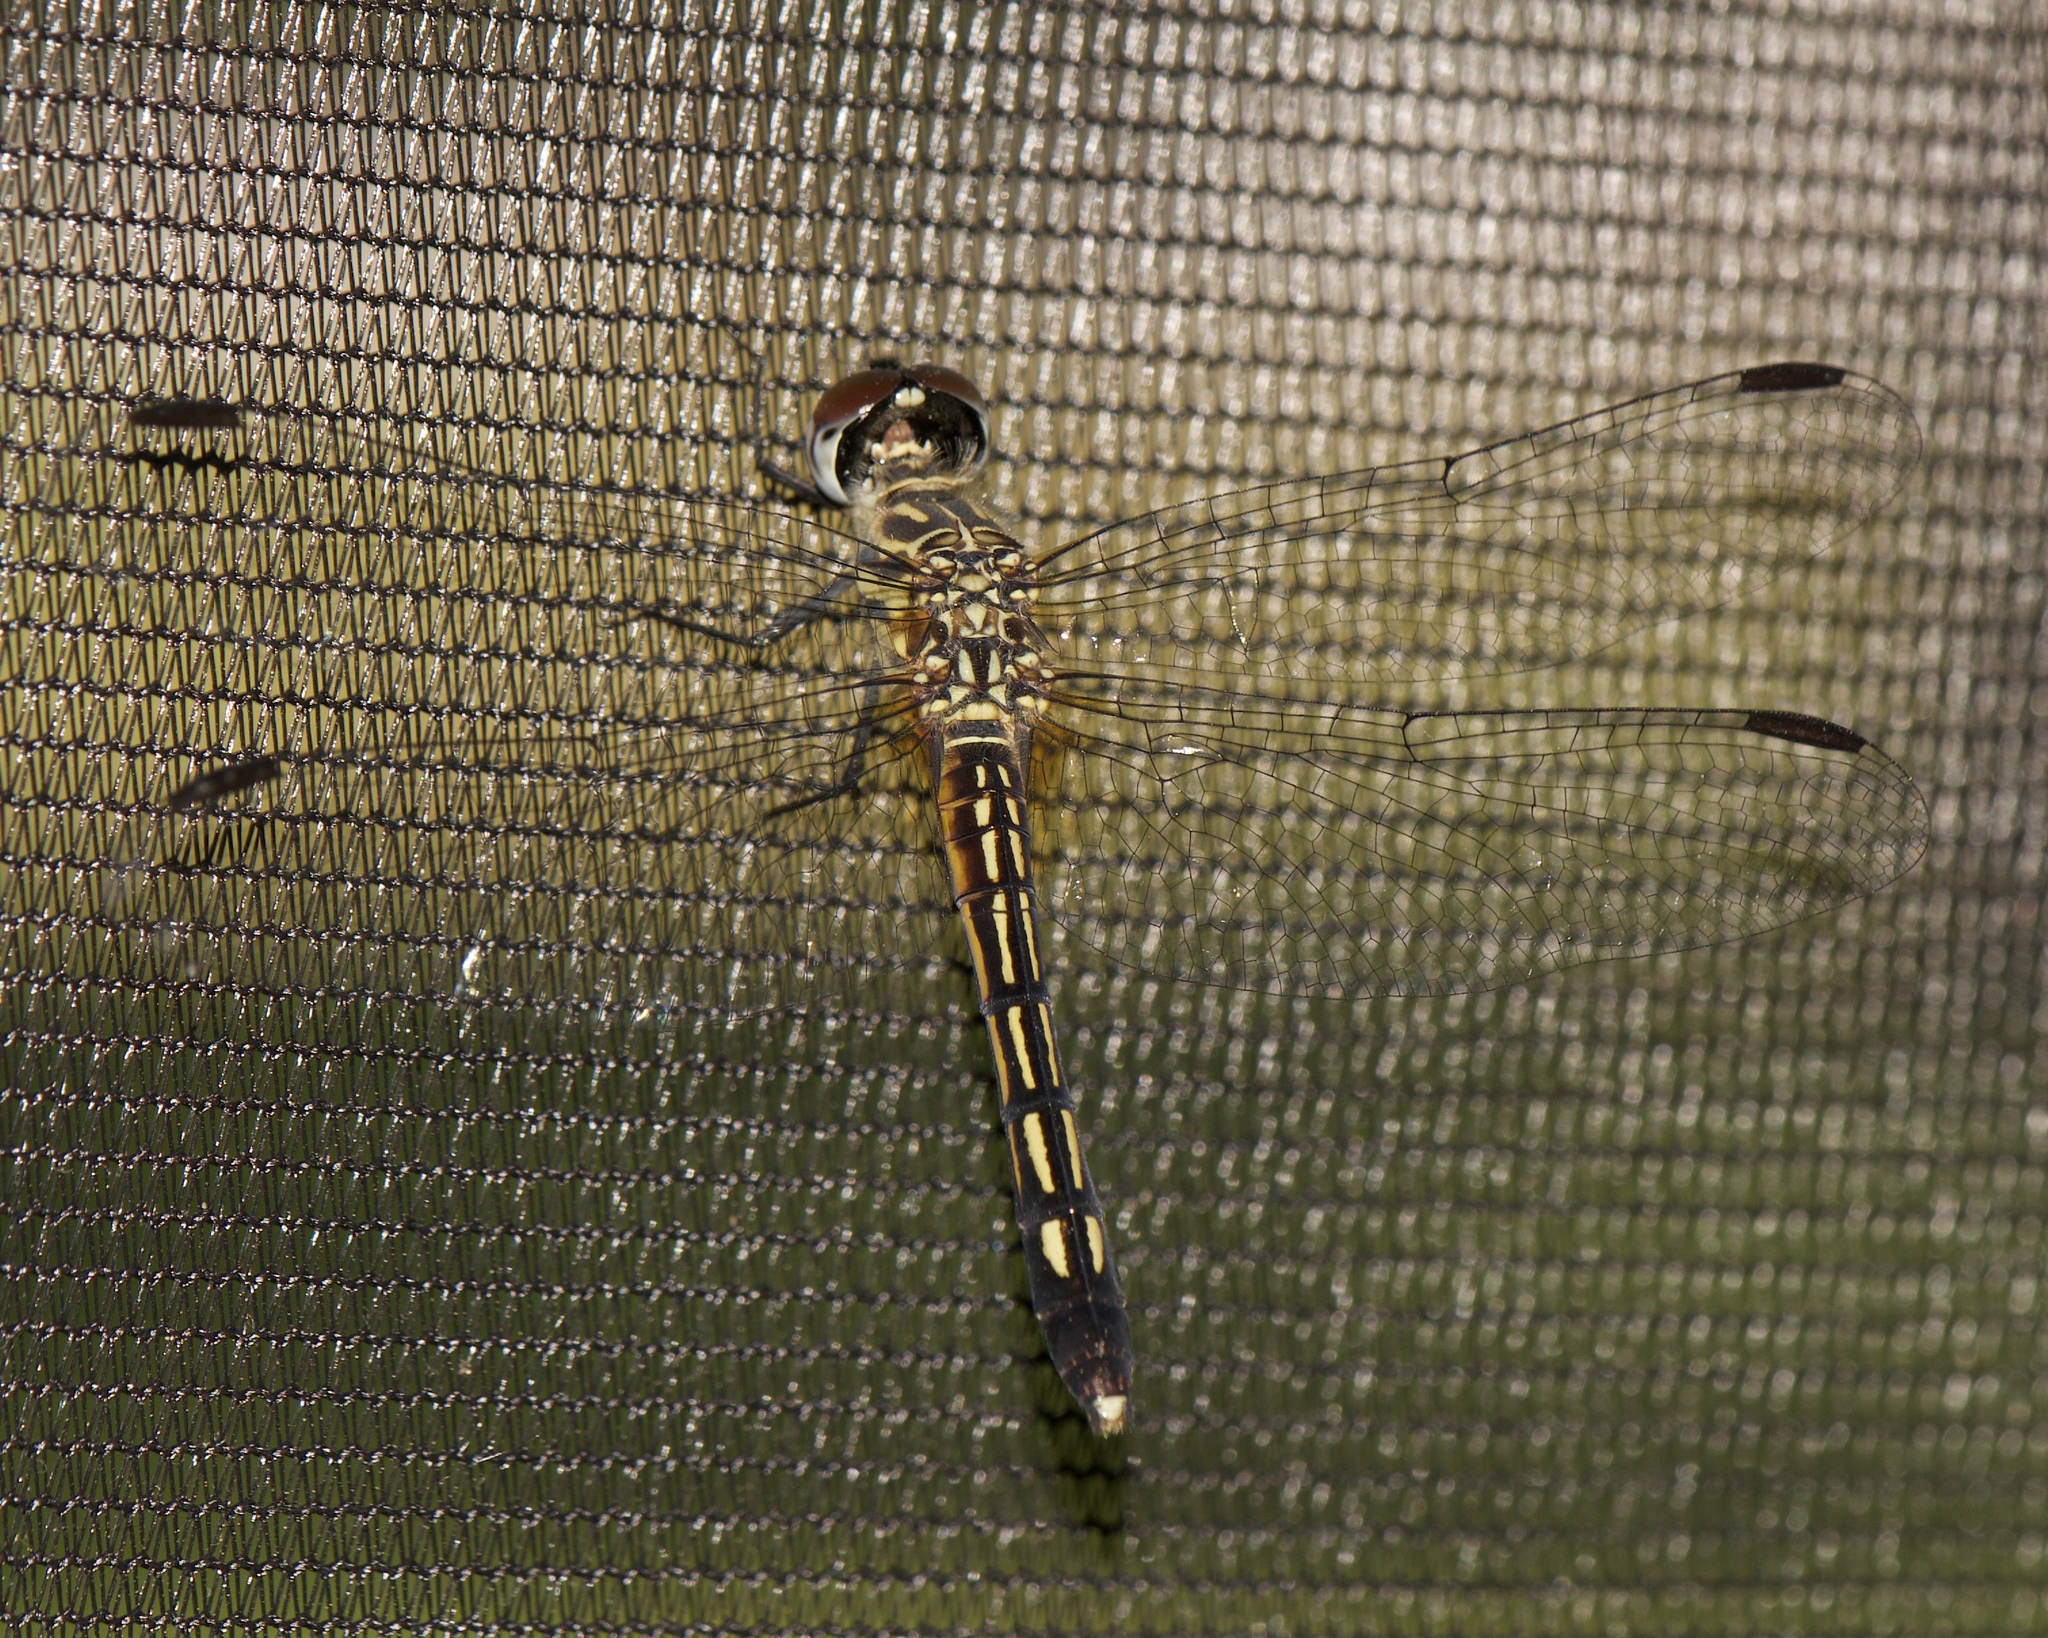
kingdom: Animalia
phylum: Arthropoda
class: Insecta
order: Odonata
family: Libellulidae
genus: Pachydiplax
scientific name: Pachydiplax longipennis
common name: Blue dasher
